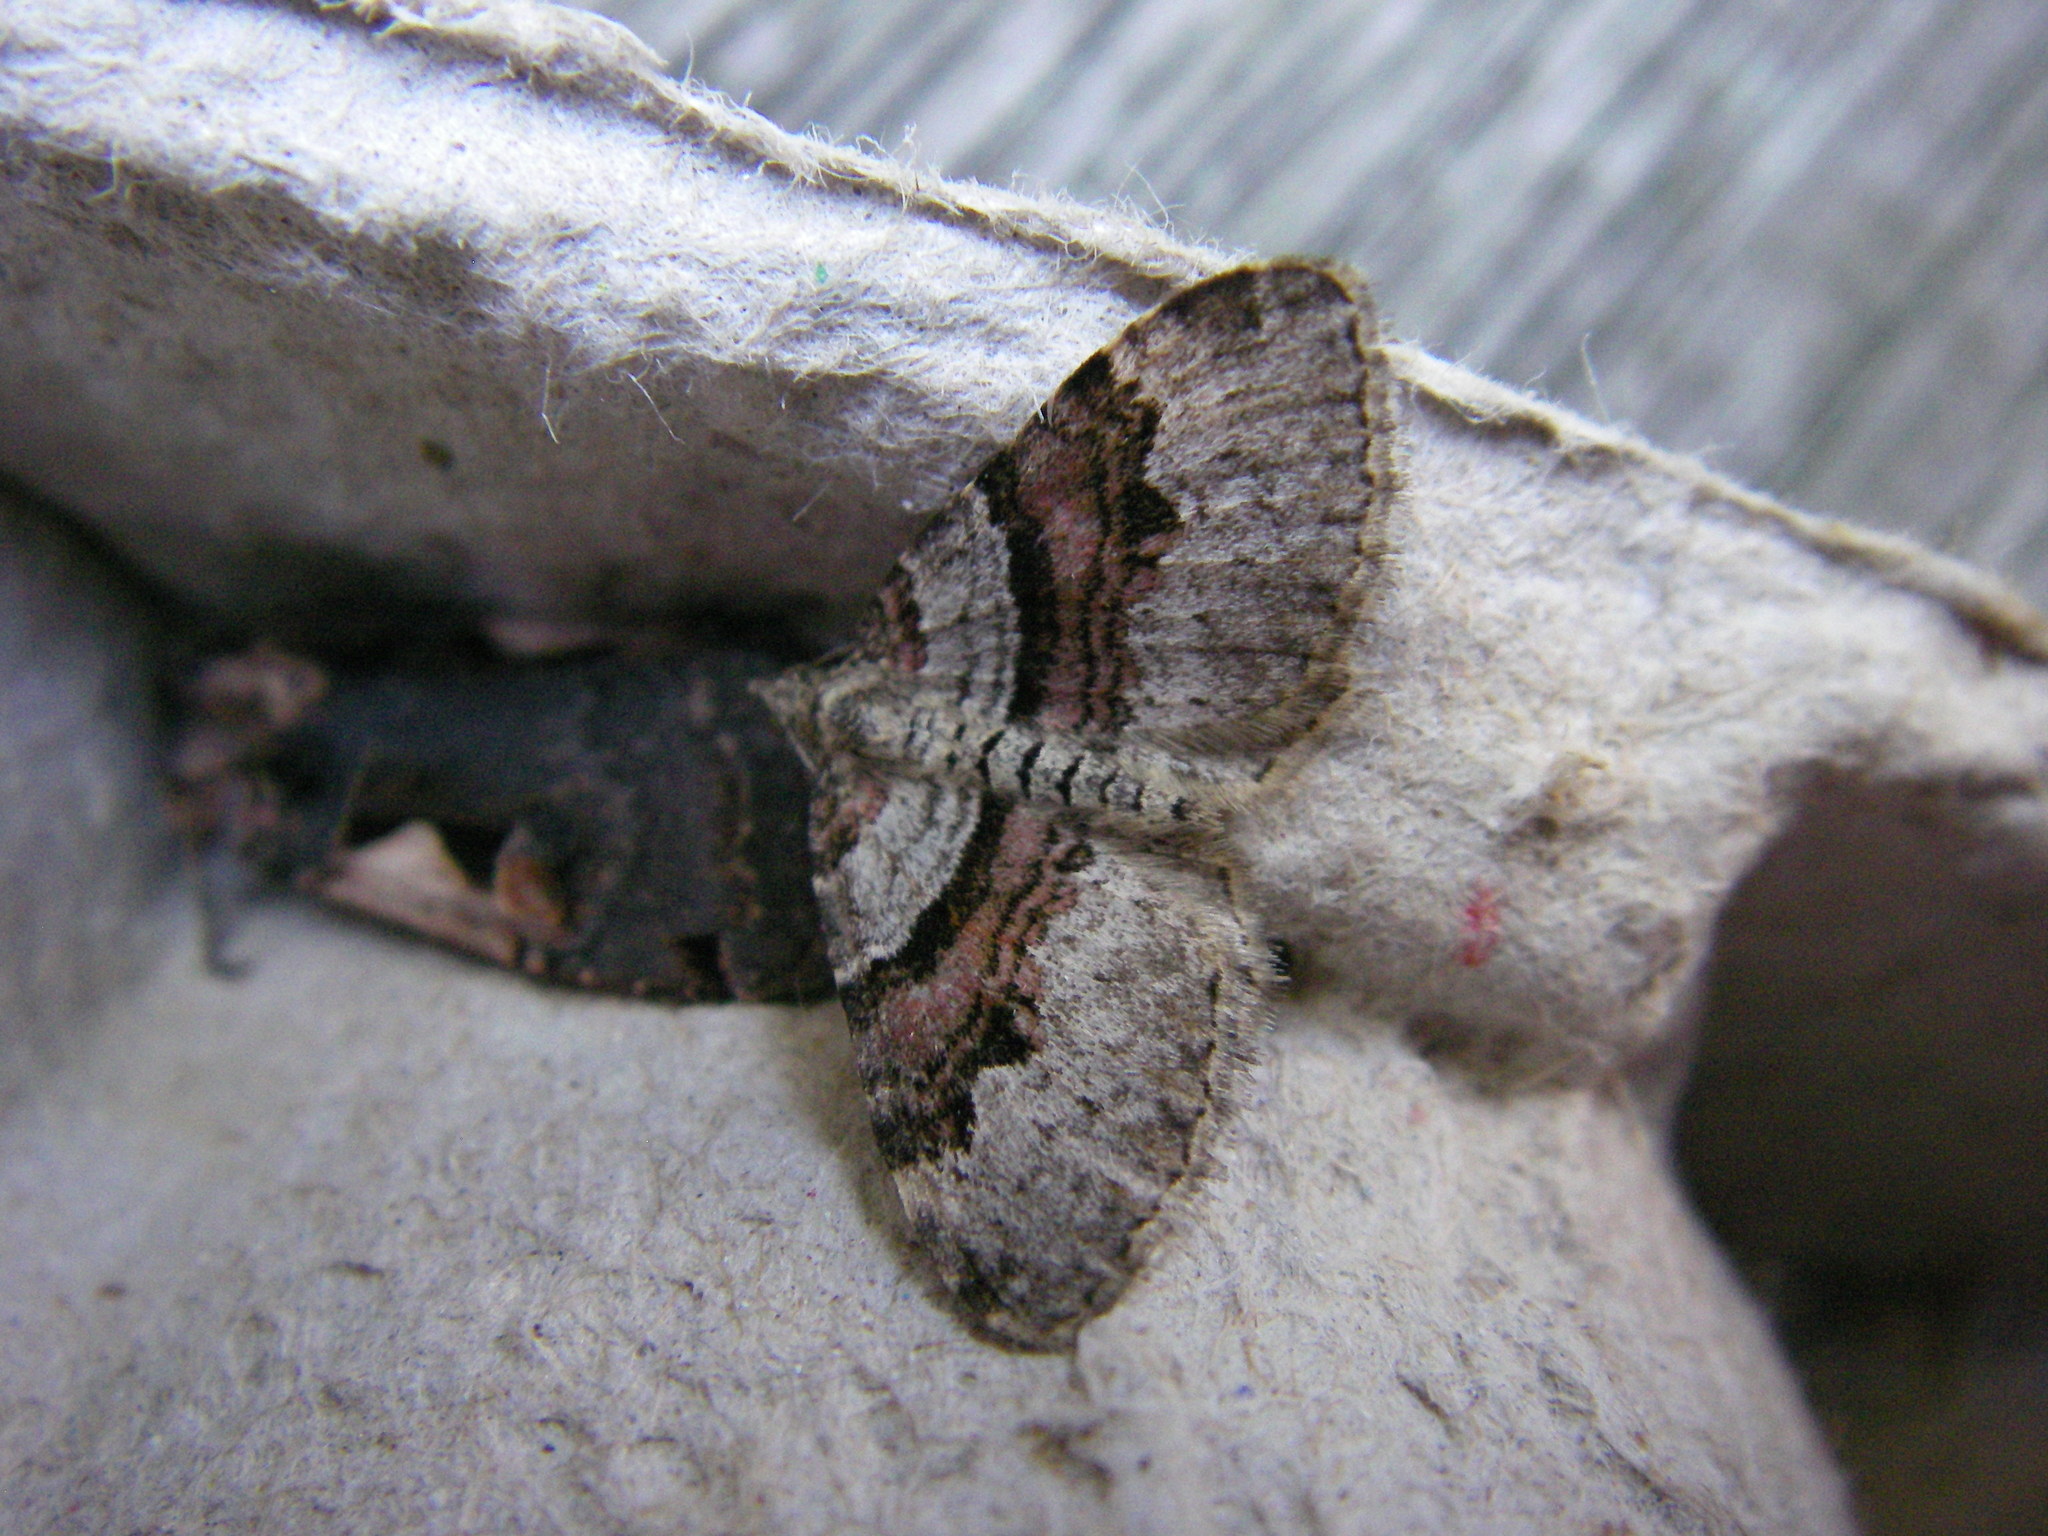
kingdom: Animalia
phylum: Arthropoda
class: Insecta
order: Lepidoptera
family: Geometridae
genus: Xanthorhoe
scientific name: Xanthorhoe designata
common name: Flame carpet
